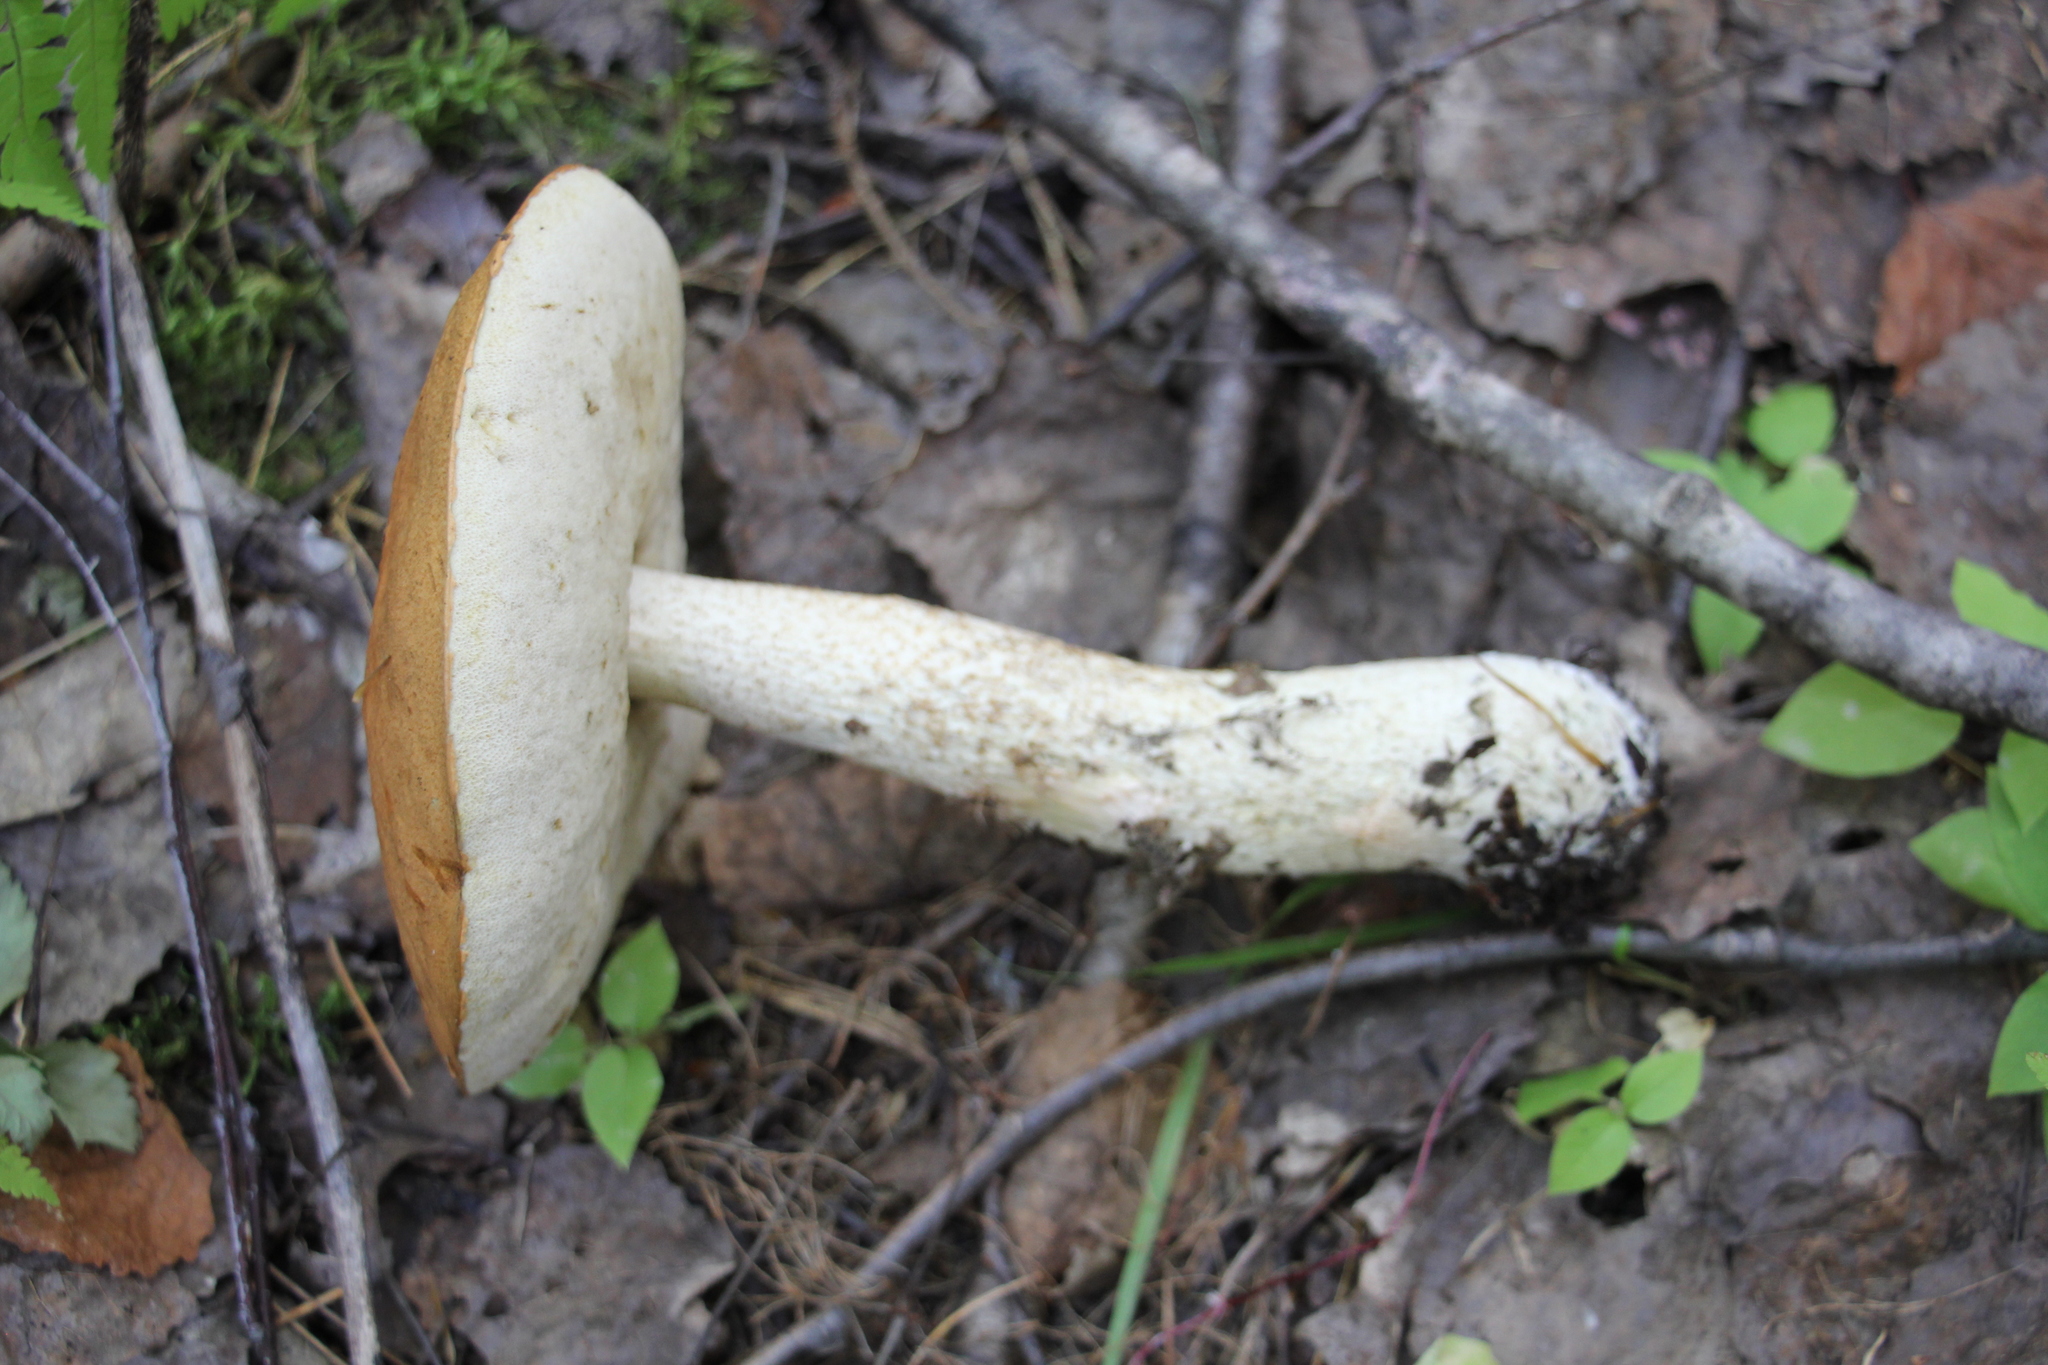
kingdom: Fungi
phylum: Basidiomycota
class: Agaricomycetes
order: Boletales
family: Boletaceae
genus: Leccinum
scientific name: Leccinum albostipitatum
